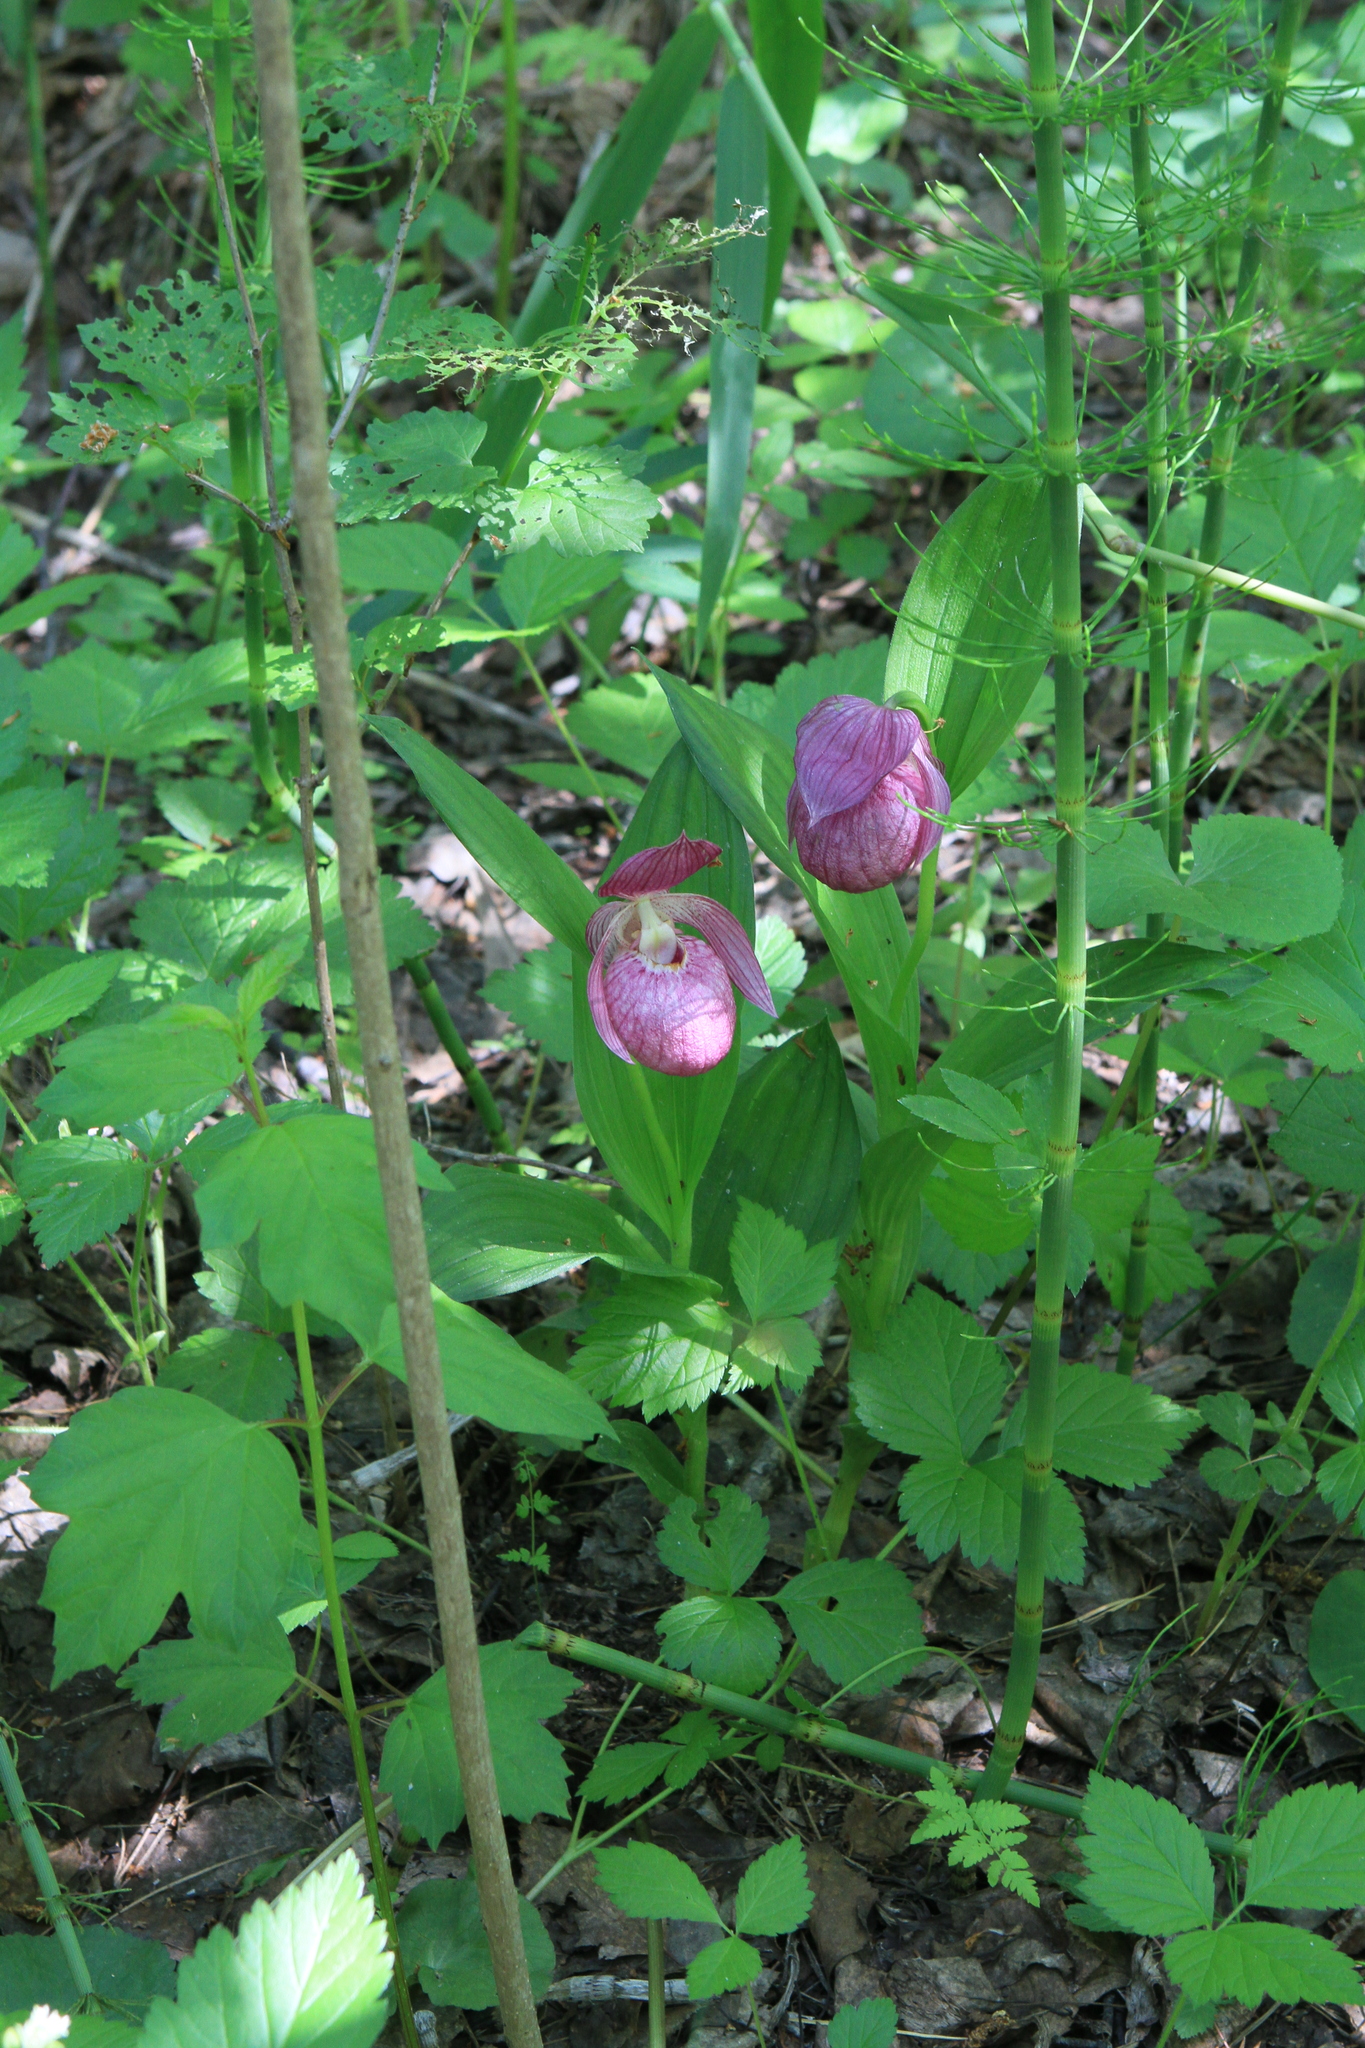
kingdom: Plantae
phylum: Tracheophyta
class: Liliopsida
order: Asparagales
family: Orchidaceae
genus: Cypripedium
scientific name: Cypripedium macranthos
